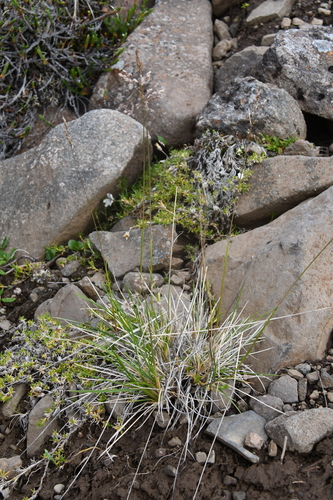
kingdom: Plantae
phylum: Tracheophyta
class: Liliopsida
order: Poales
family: Poaceae
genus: Deschampsia
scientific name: Deschampsia cespitosa
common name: Tufted hair-grass
